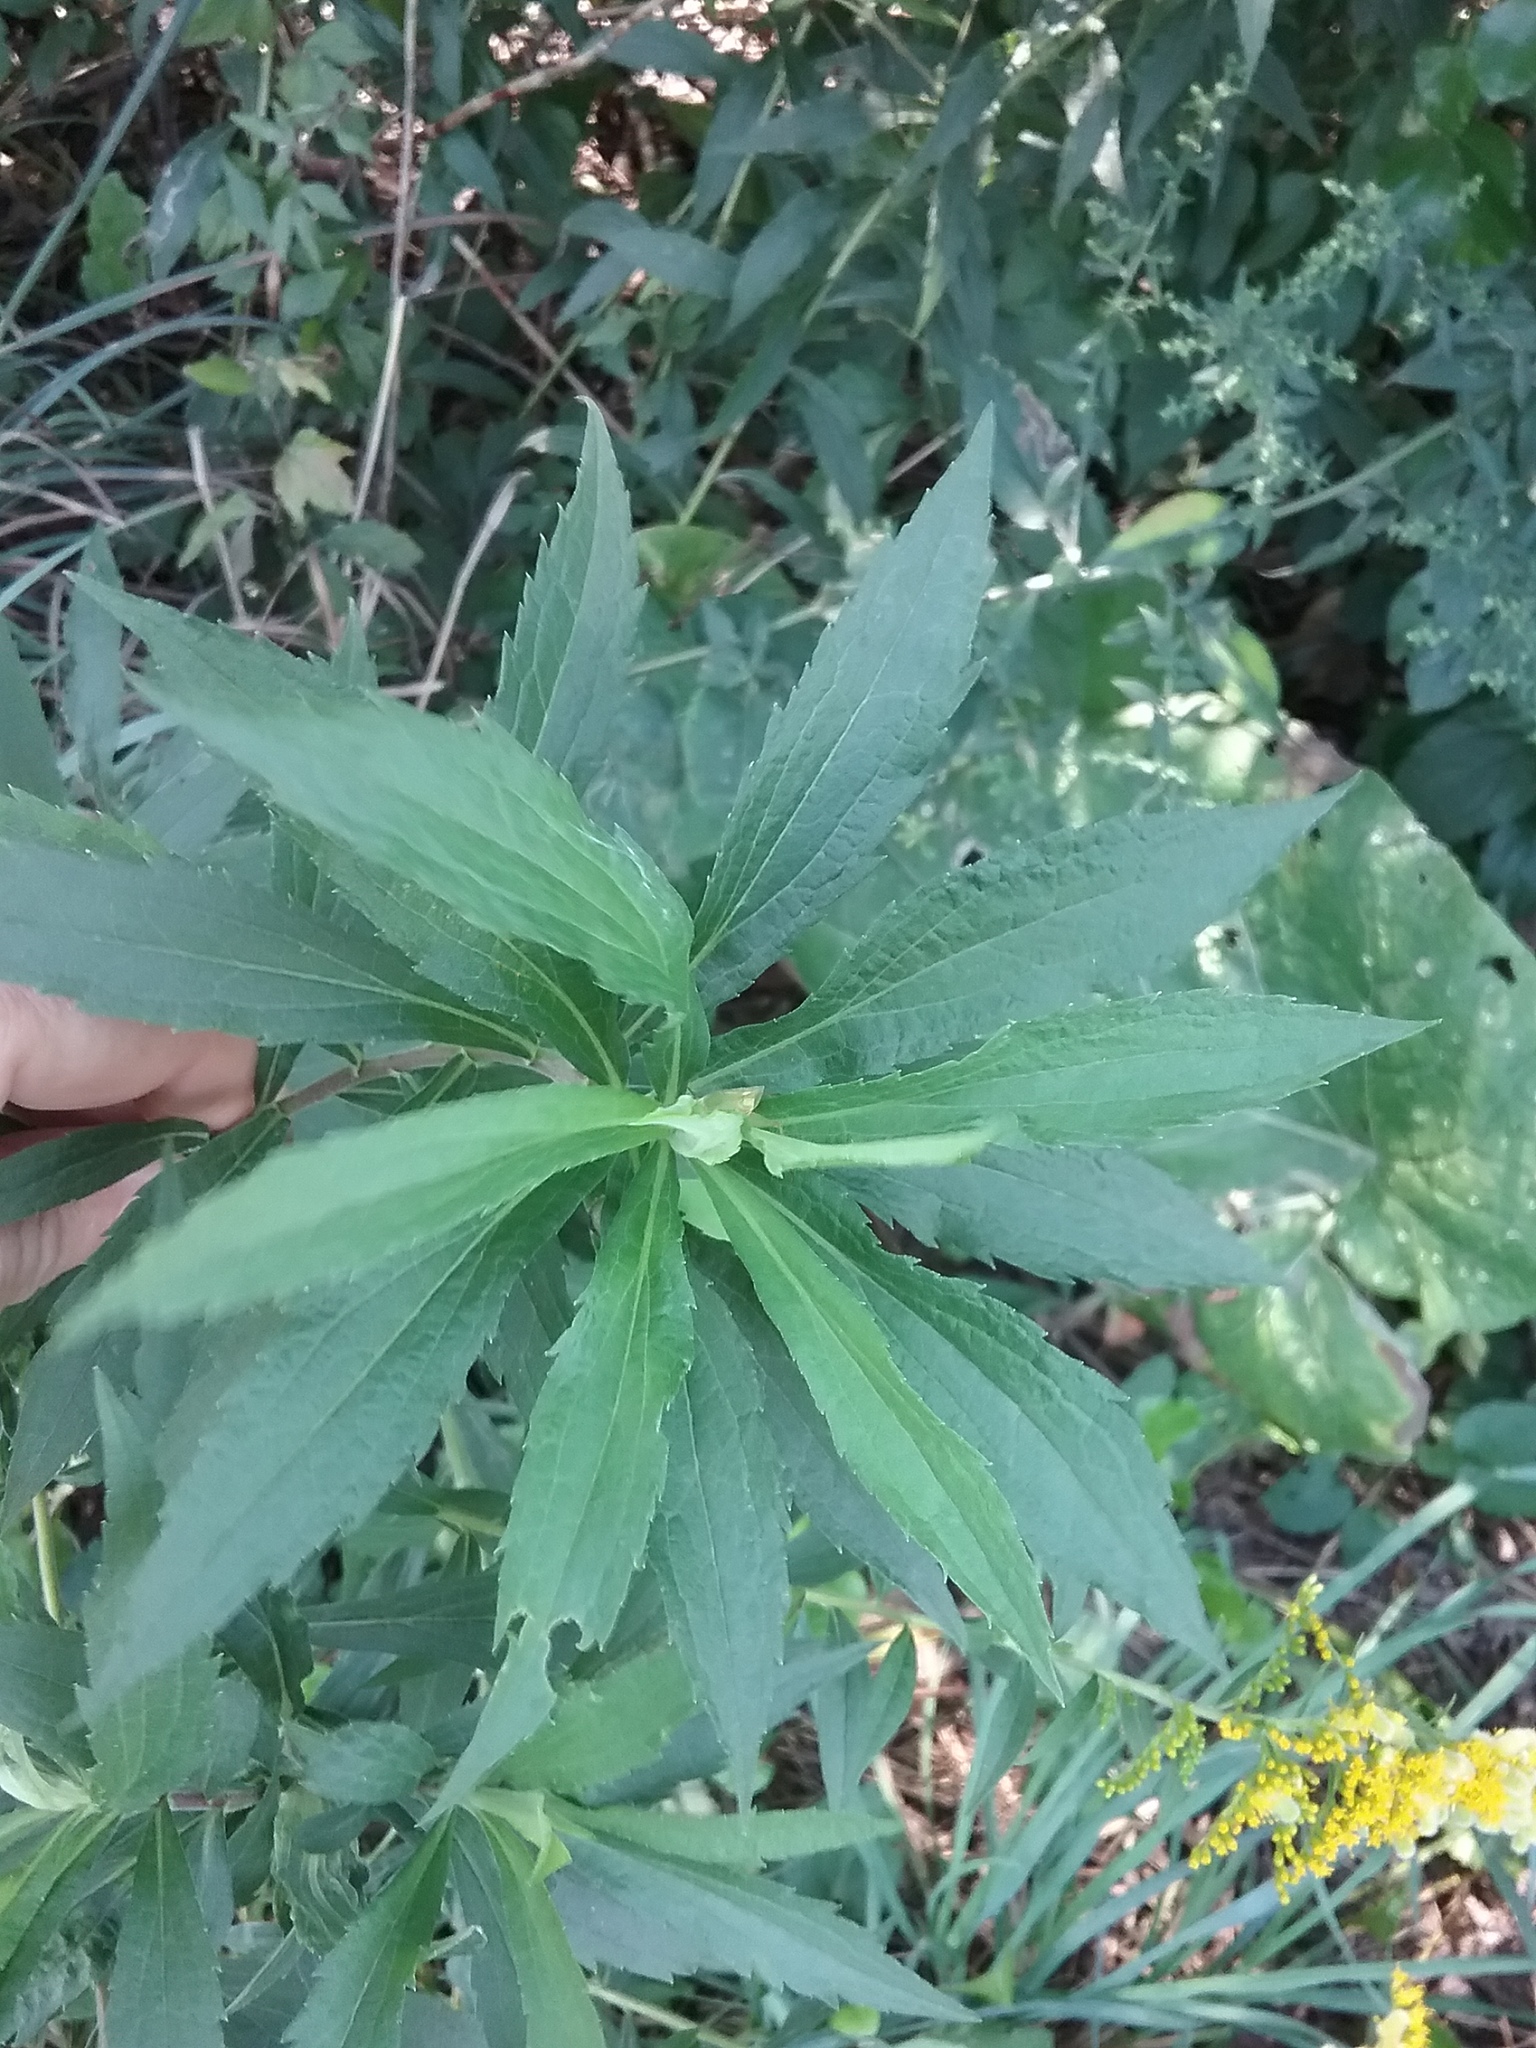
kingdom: Plantae
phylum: Tracheophyta
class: Magnoliopsida
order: Asterales
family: Asteraceae
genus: Solidago
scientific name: Solidago canadensis
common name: Canada goldenrod
